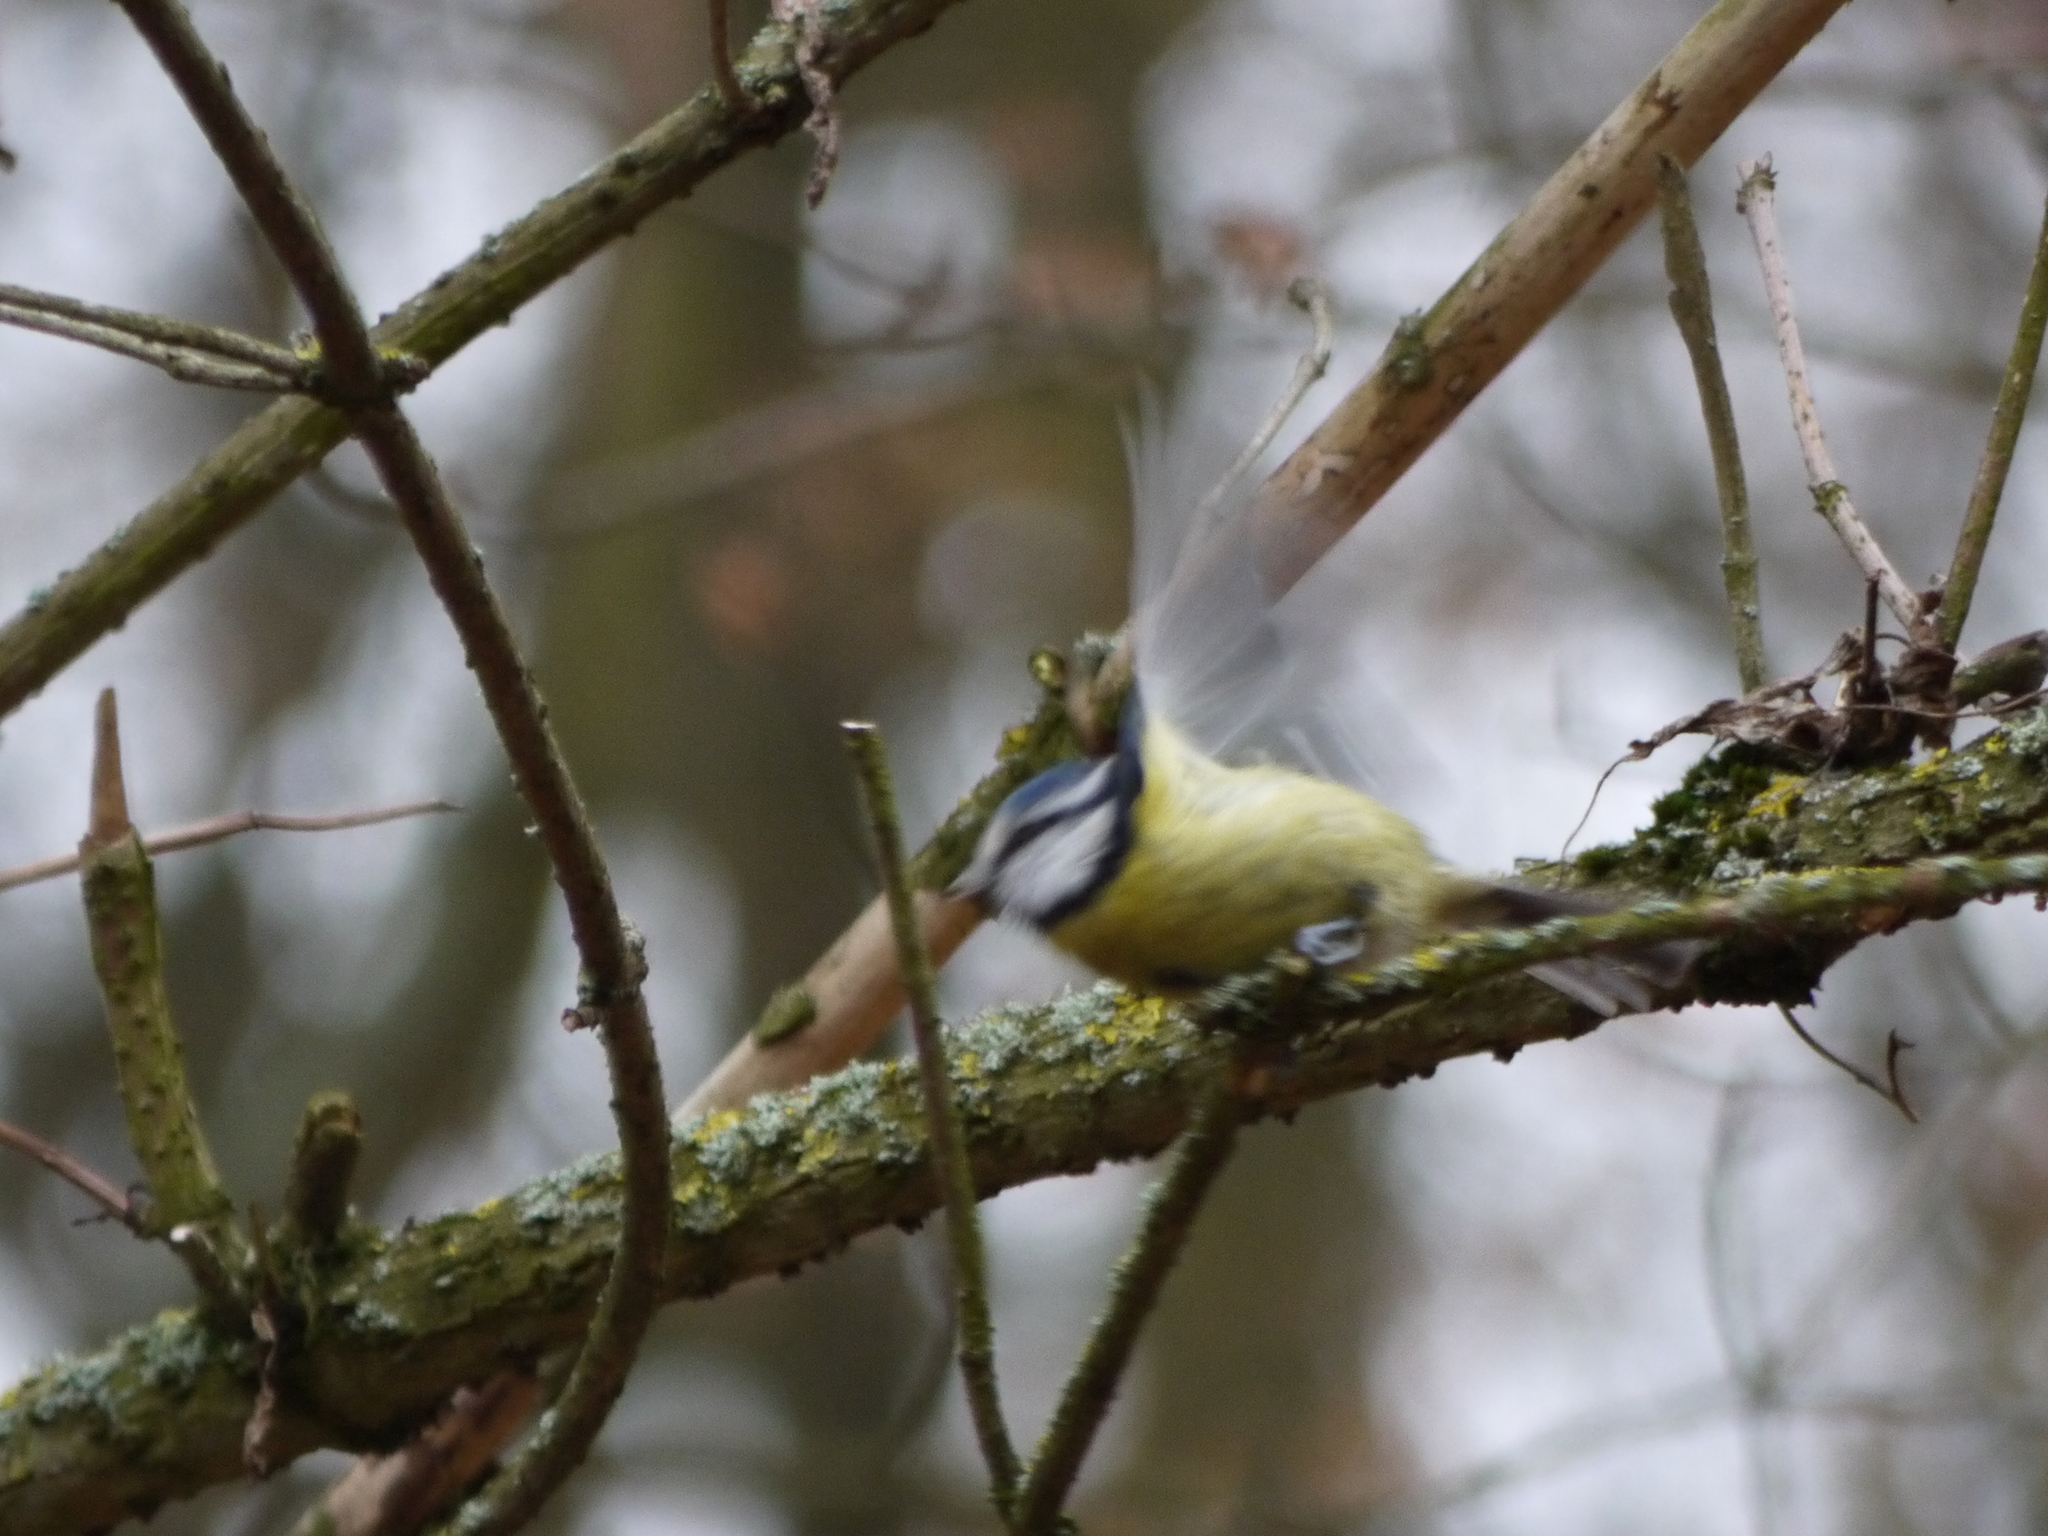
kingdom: Animalia
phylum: Chordata
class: Aves
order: Passeriformes
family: Paridae
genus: Cyanistes
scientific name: Cyanistes caeruleus
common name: Eurasian blue tit
